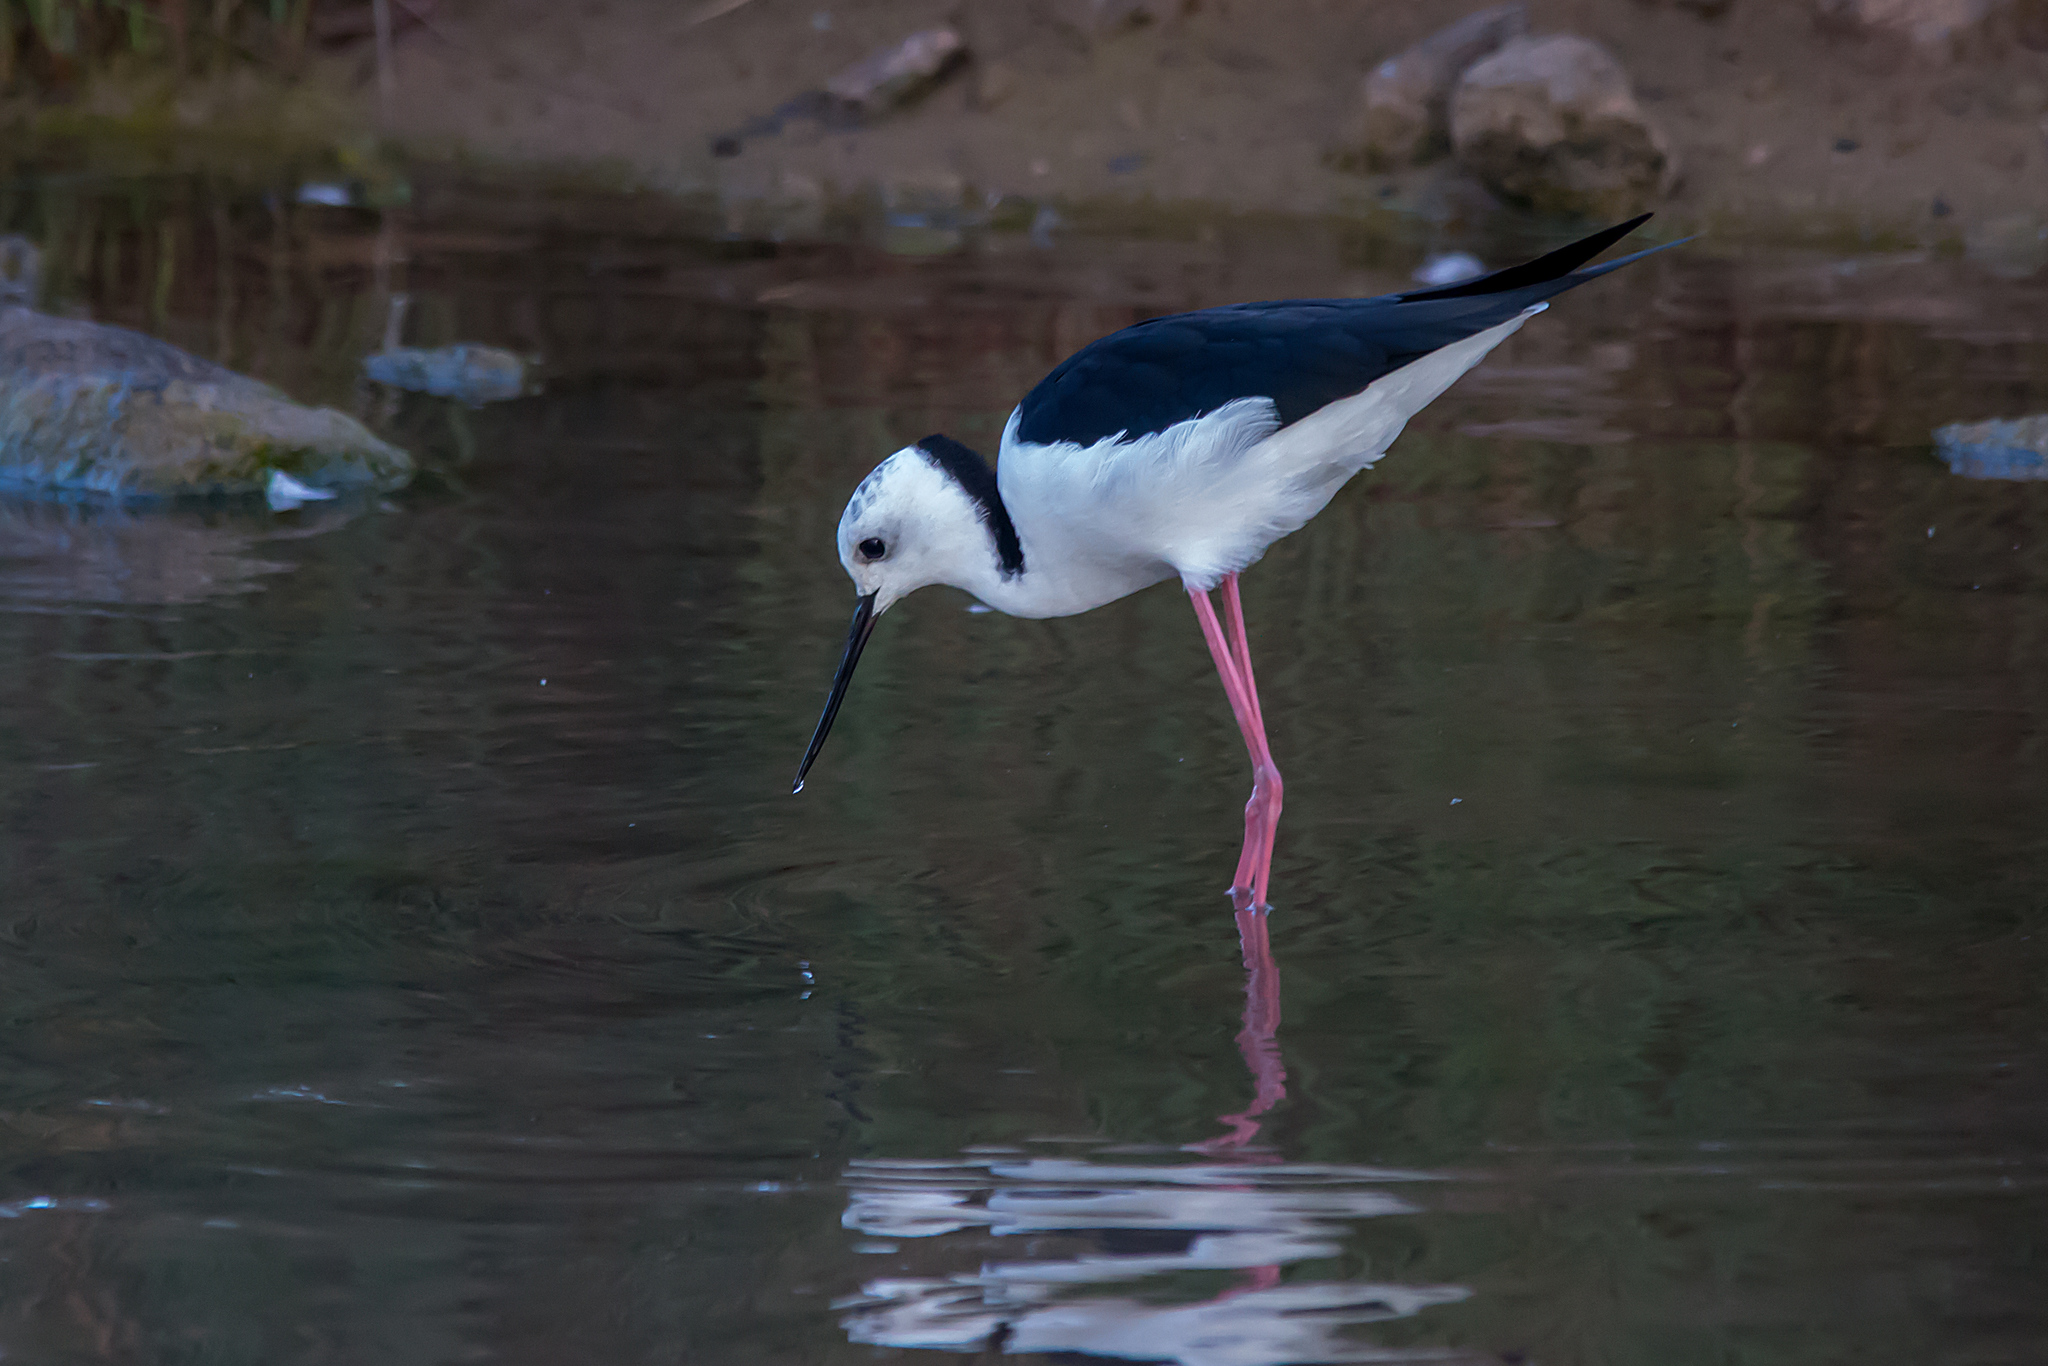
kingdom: Animalia
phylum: Chordata
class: Aves
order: Charadriiformes
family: Recurvirostridae
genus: Himantopus
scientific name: Himantopus leucocephalus
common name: White-headed stilt
